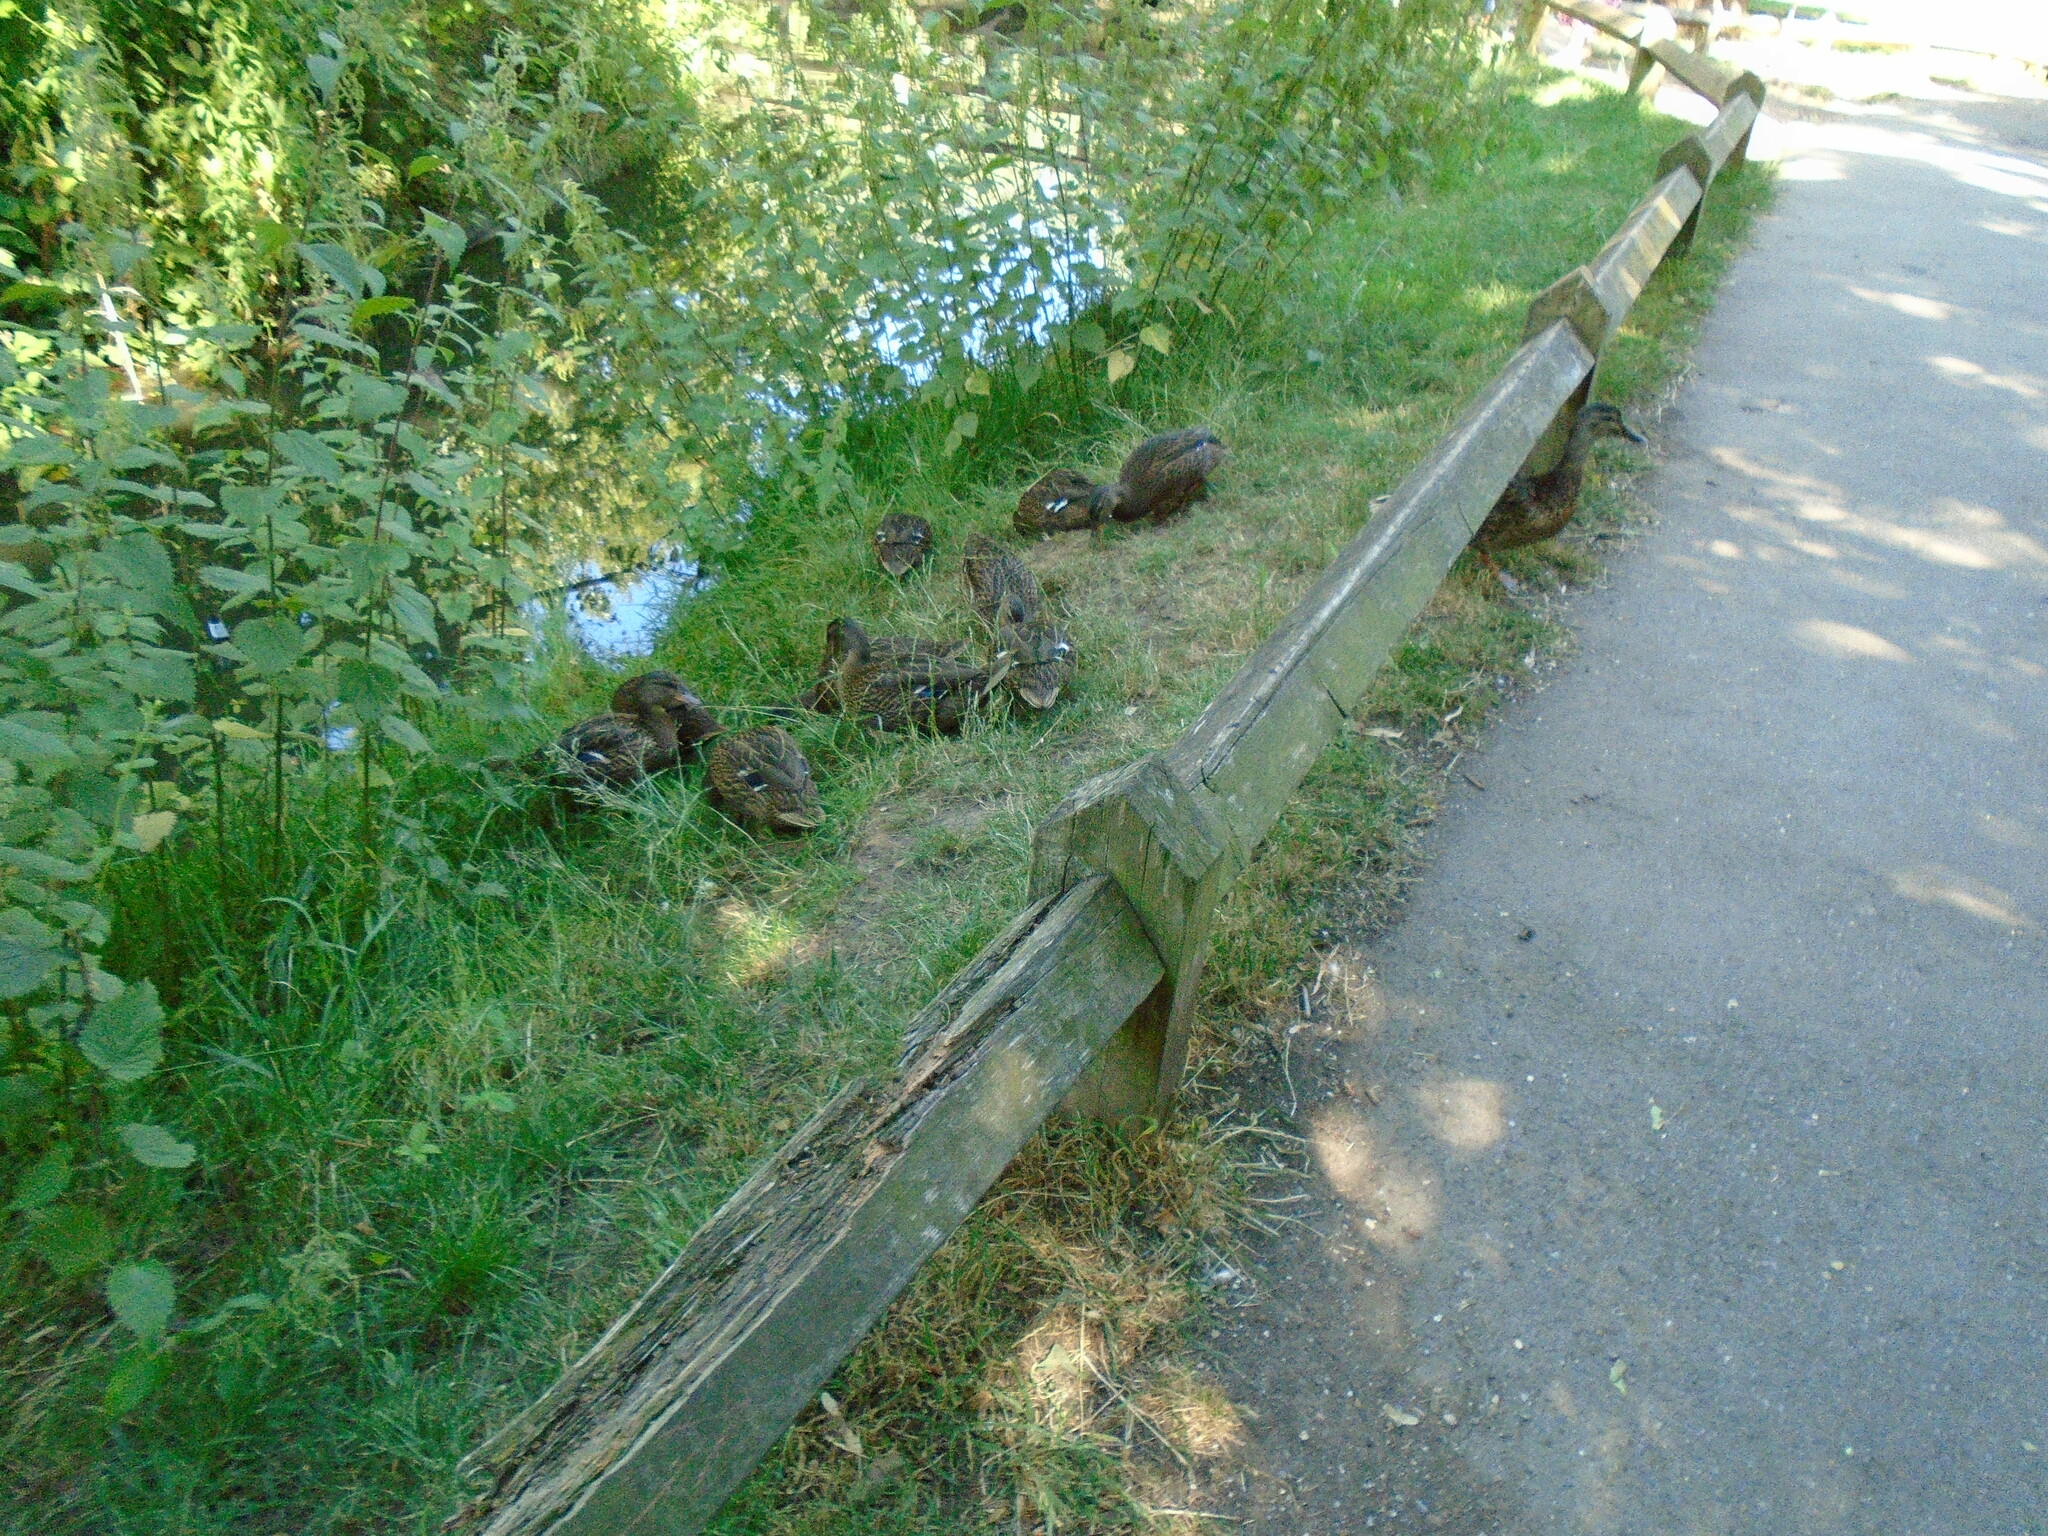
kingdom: Animalia
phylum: Chordata
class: Aves
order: Anseriformes
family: Anatidae
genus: Anas
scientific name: Anas platyrhynchos
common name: Mallard
